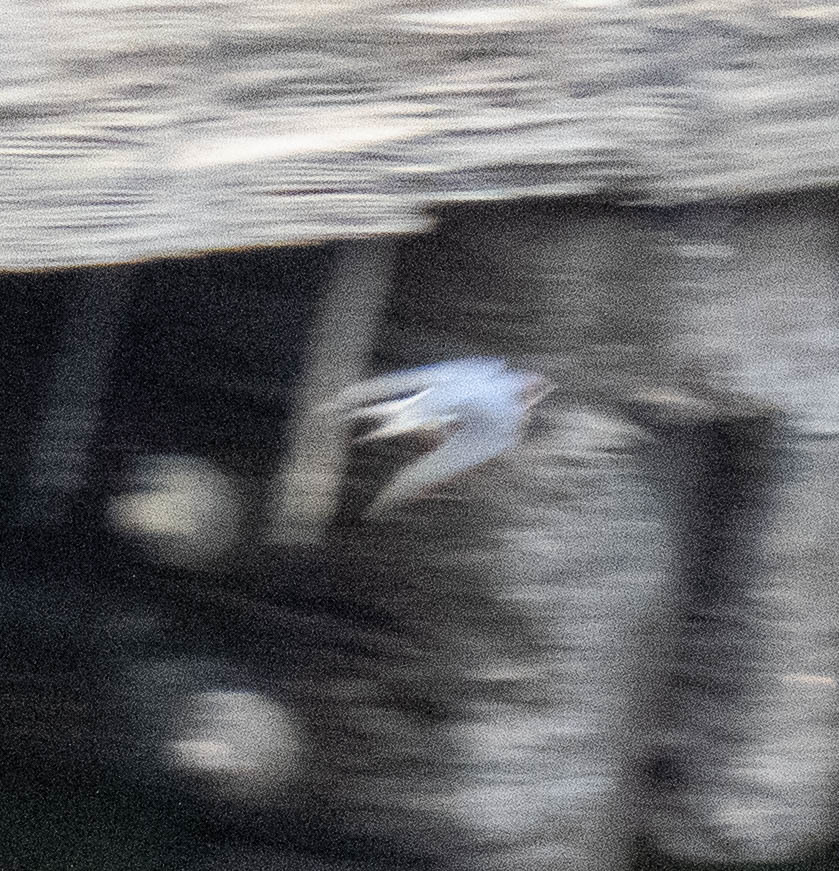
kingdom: Animalia
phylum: Chordata
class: Aves
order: Passeriformes
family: Hirundinidae
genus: Hirundo
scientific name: Hirundo rustica
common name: Barn swallow
